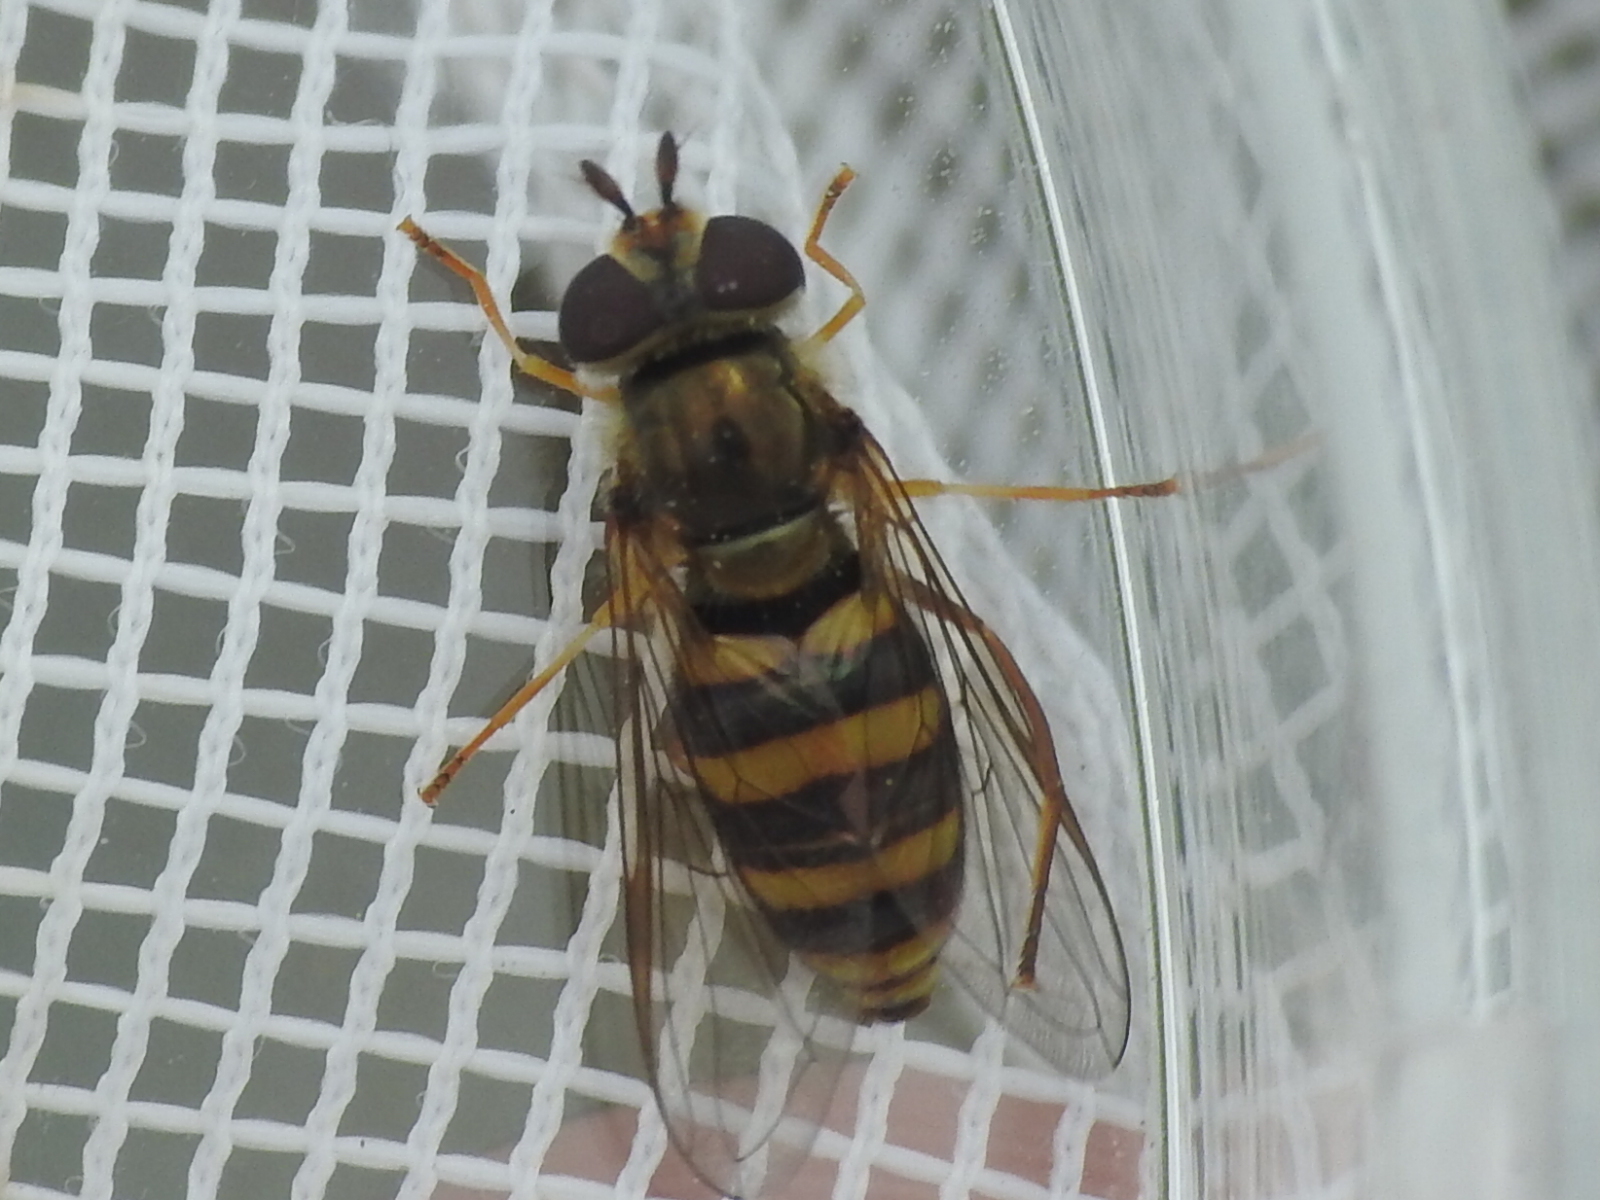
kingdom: Animalia
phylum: Arthropoda
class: Insecta
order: Diptera
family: Syrphidae
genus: Eupeodes
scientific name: Eupeodes
